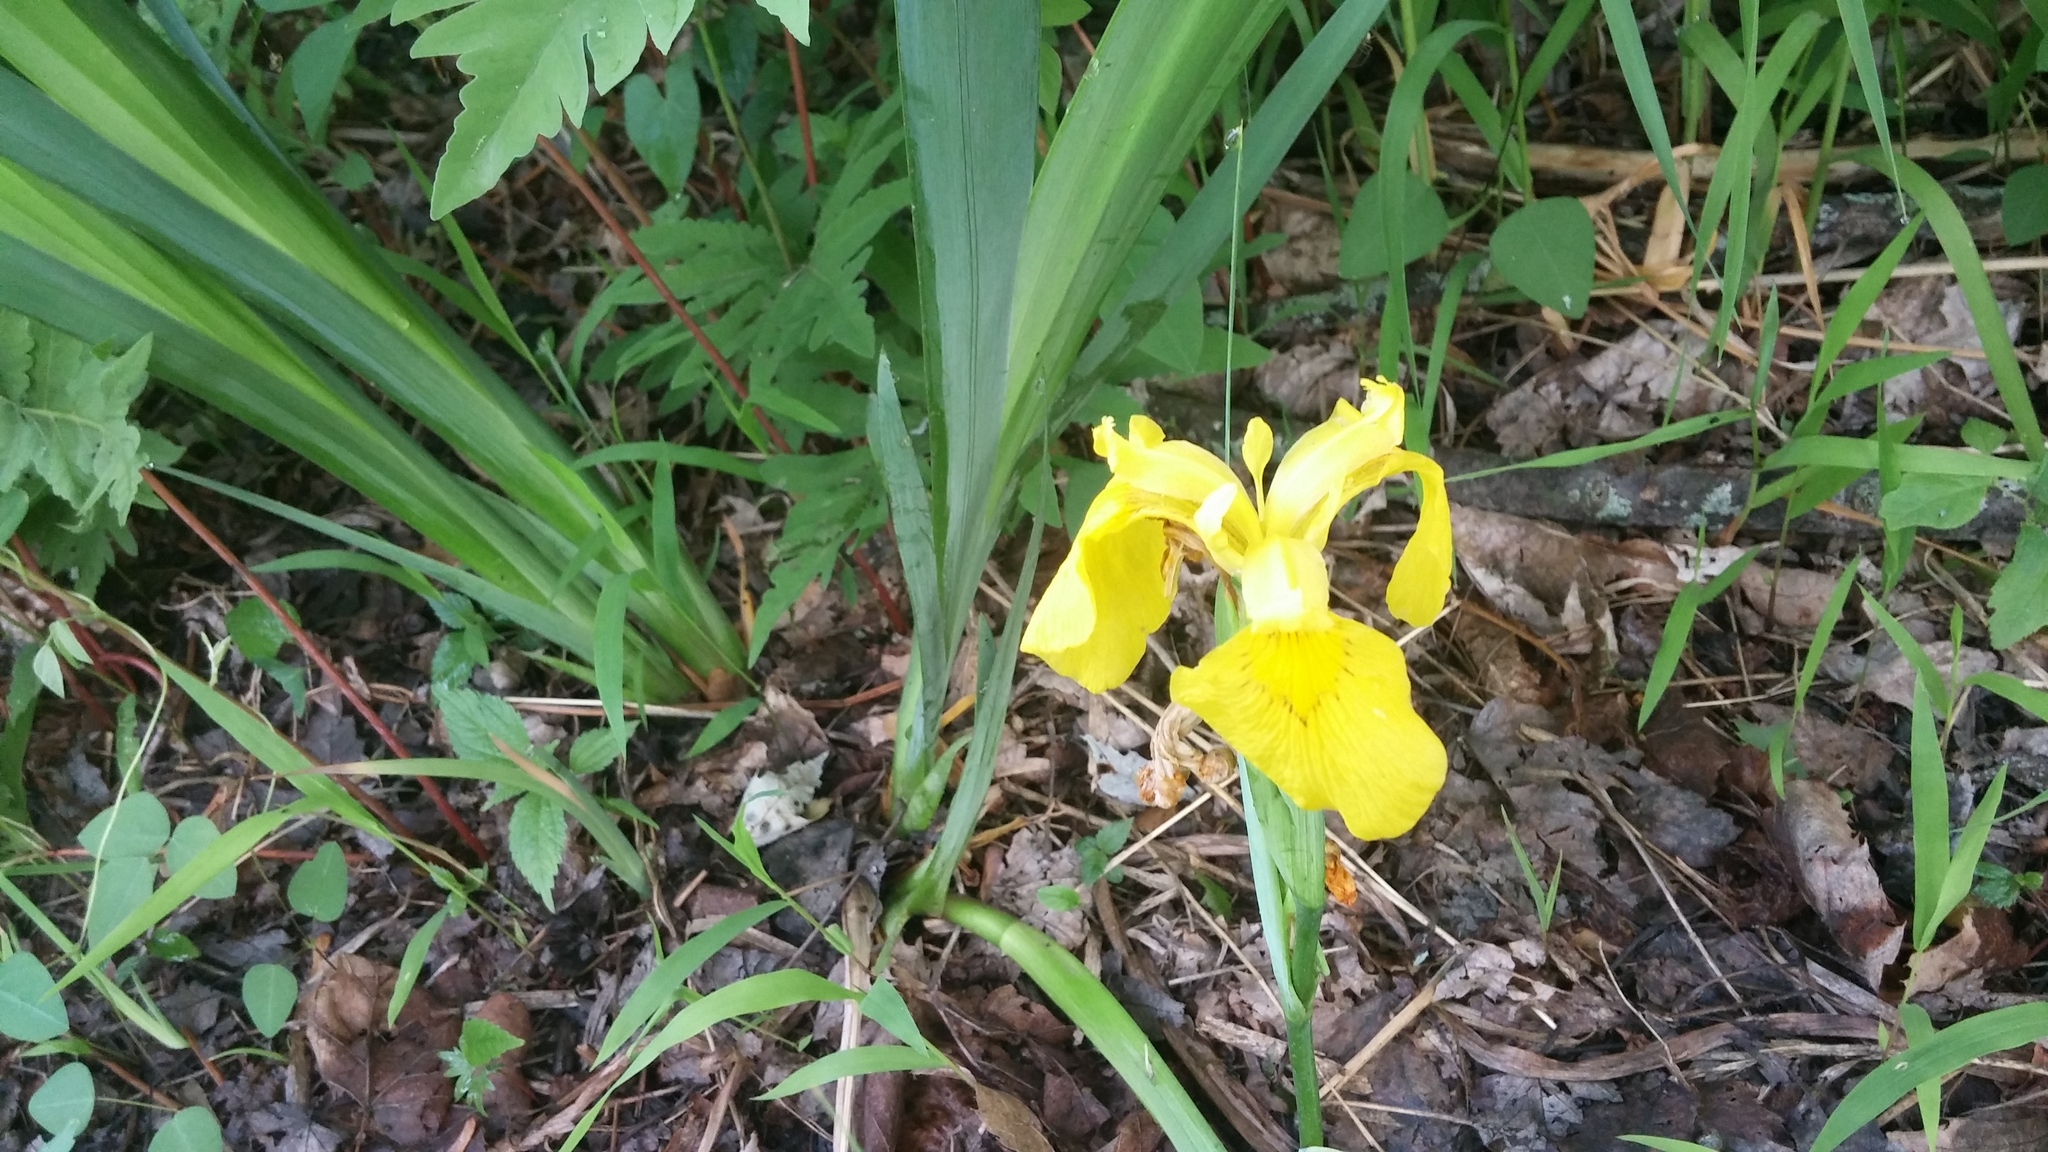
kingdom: Plantae
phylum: Tracheophyta
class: Liliopsida
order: Asparagales
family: Iridaceae
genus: Iris
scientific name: Iris pseudacorus
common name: Yellow flag
